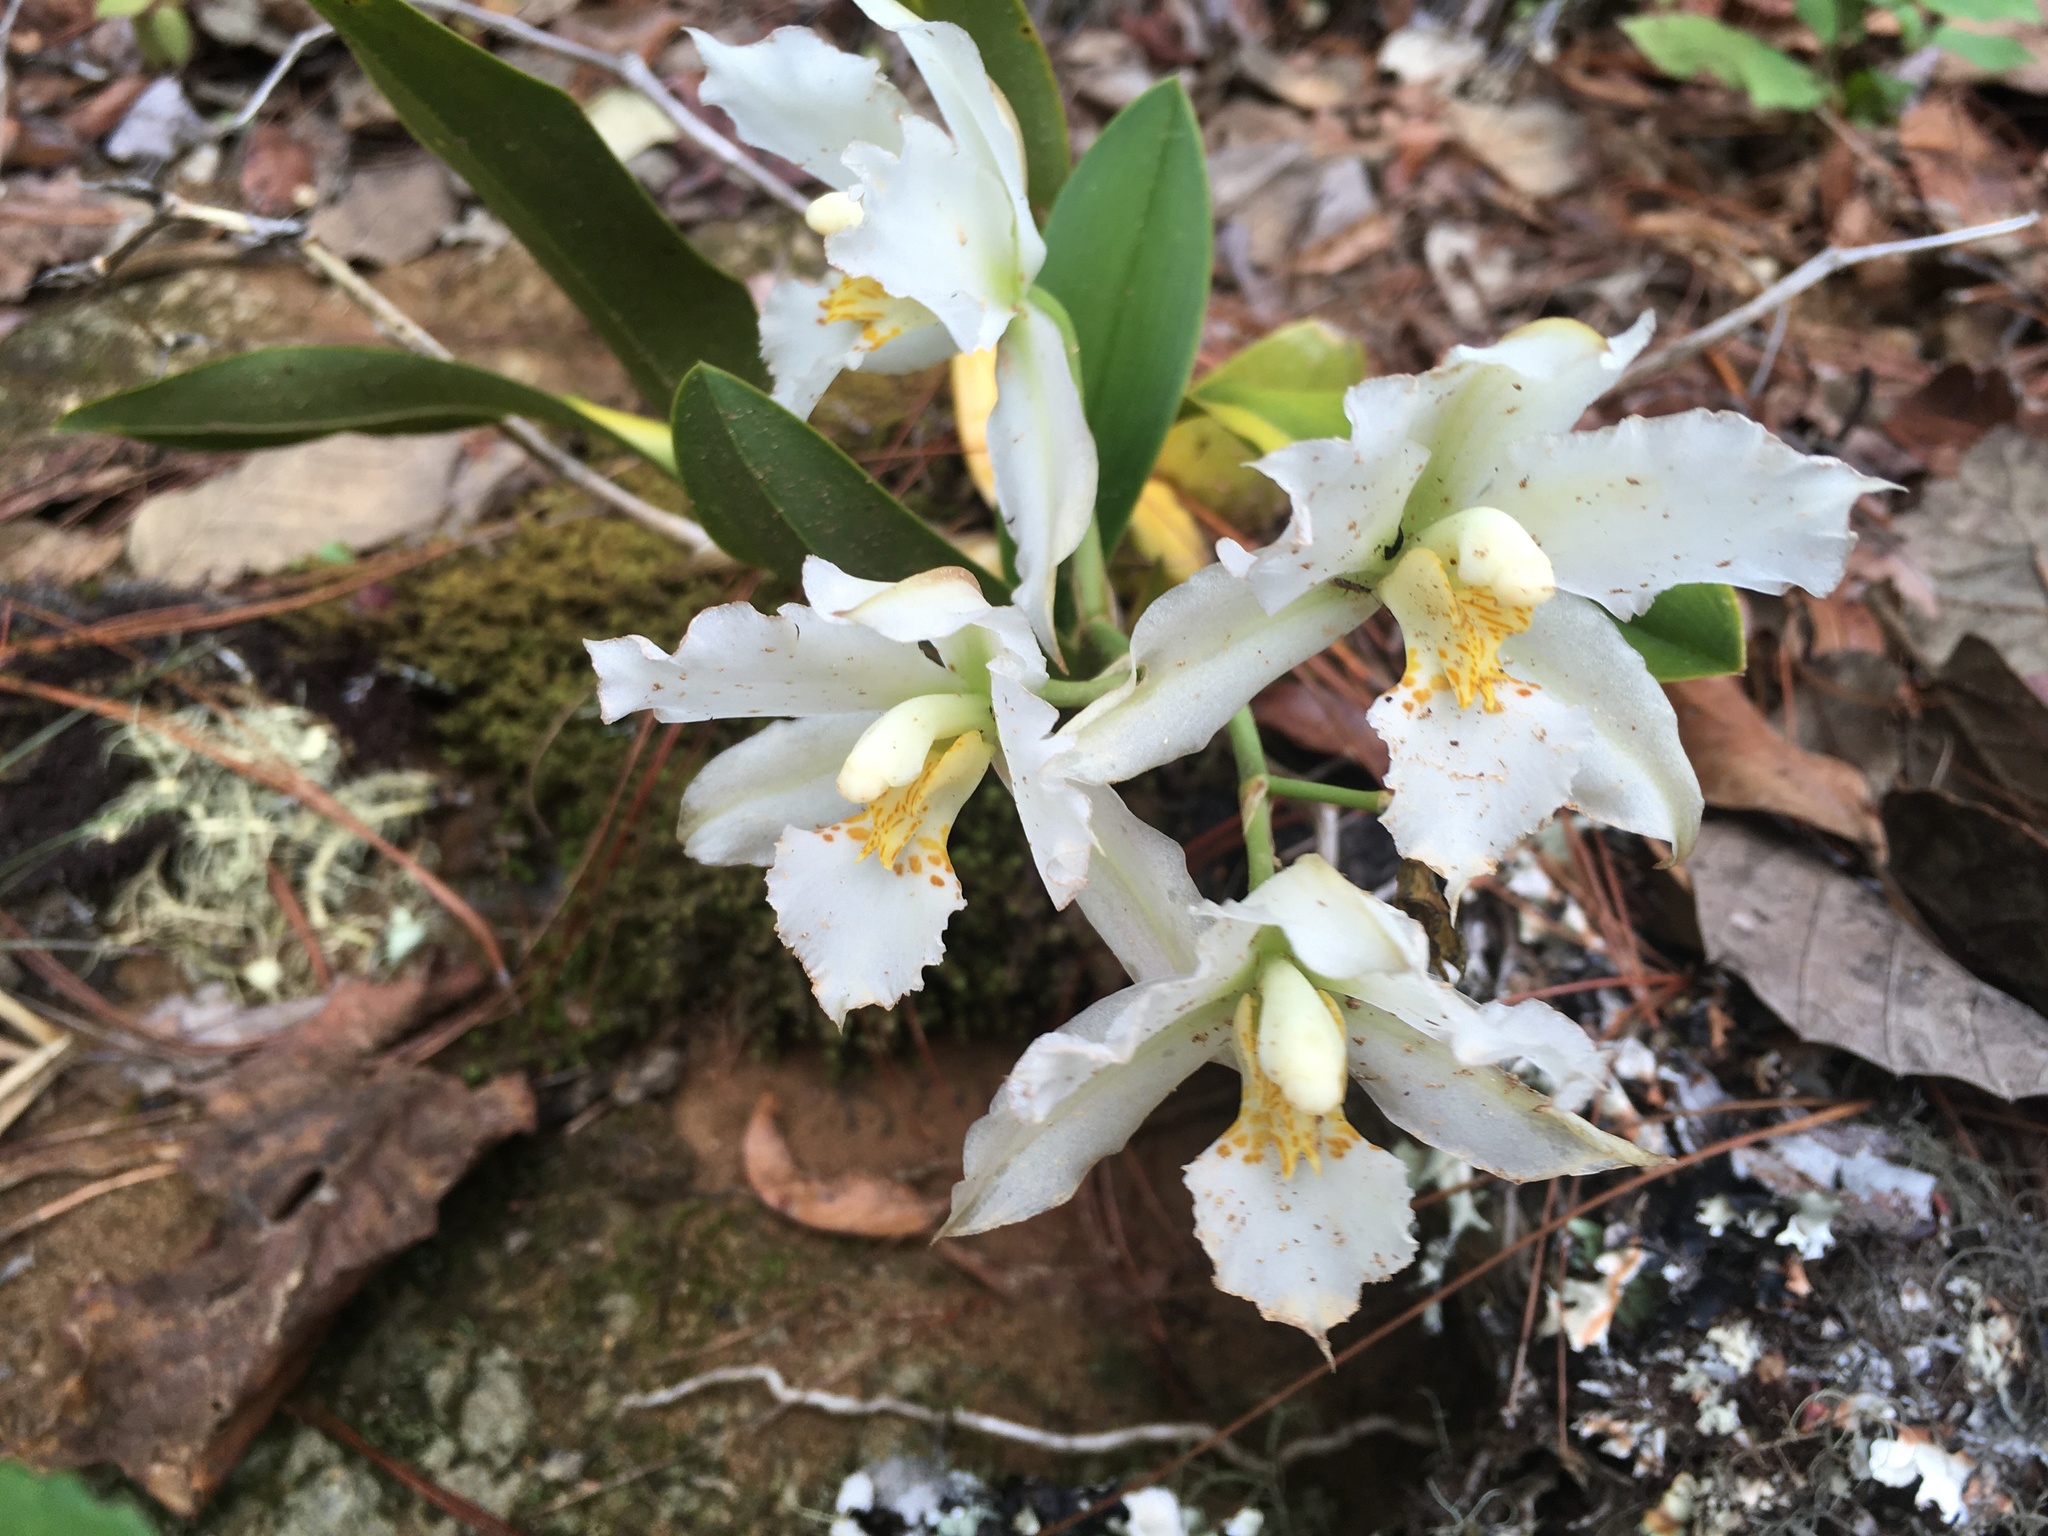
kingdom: Plantae
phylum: Tracheophyta
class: Liliopsida
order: Asparagales
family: Orchidaceae
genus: Rhynchostele
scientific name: Rhynchostele candidula
